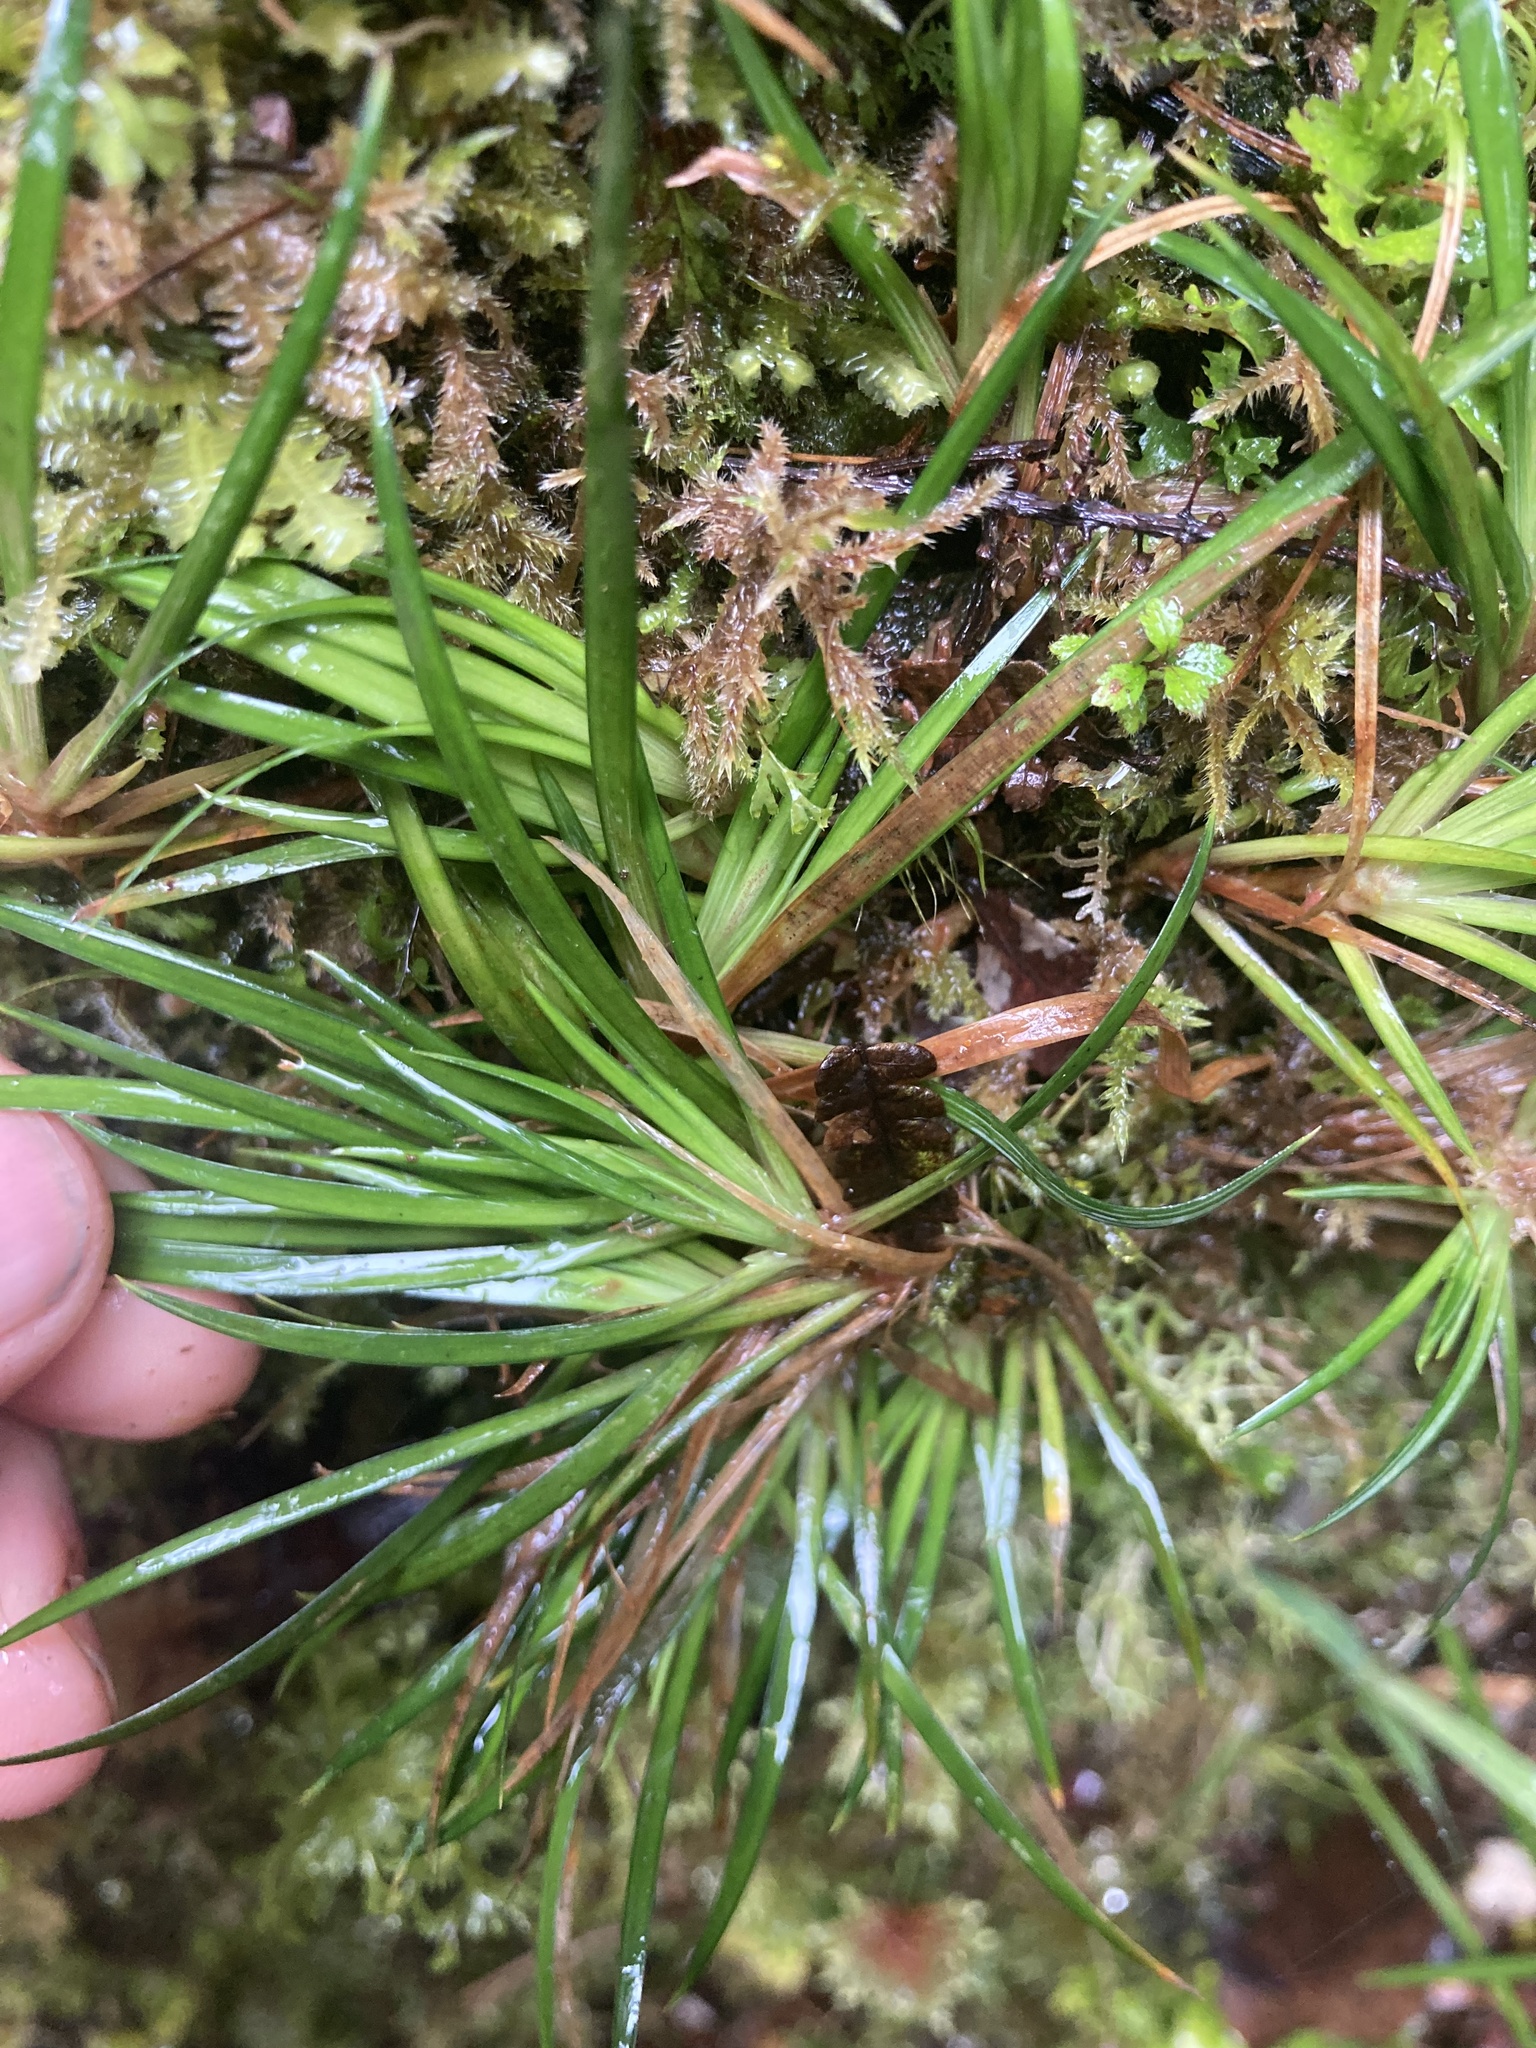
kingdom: Plantae
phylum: Tracheophyta
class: Liliopsida
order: Asparagales
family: Iridaceae
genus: Libertia
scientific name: Libertia micrantha
